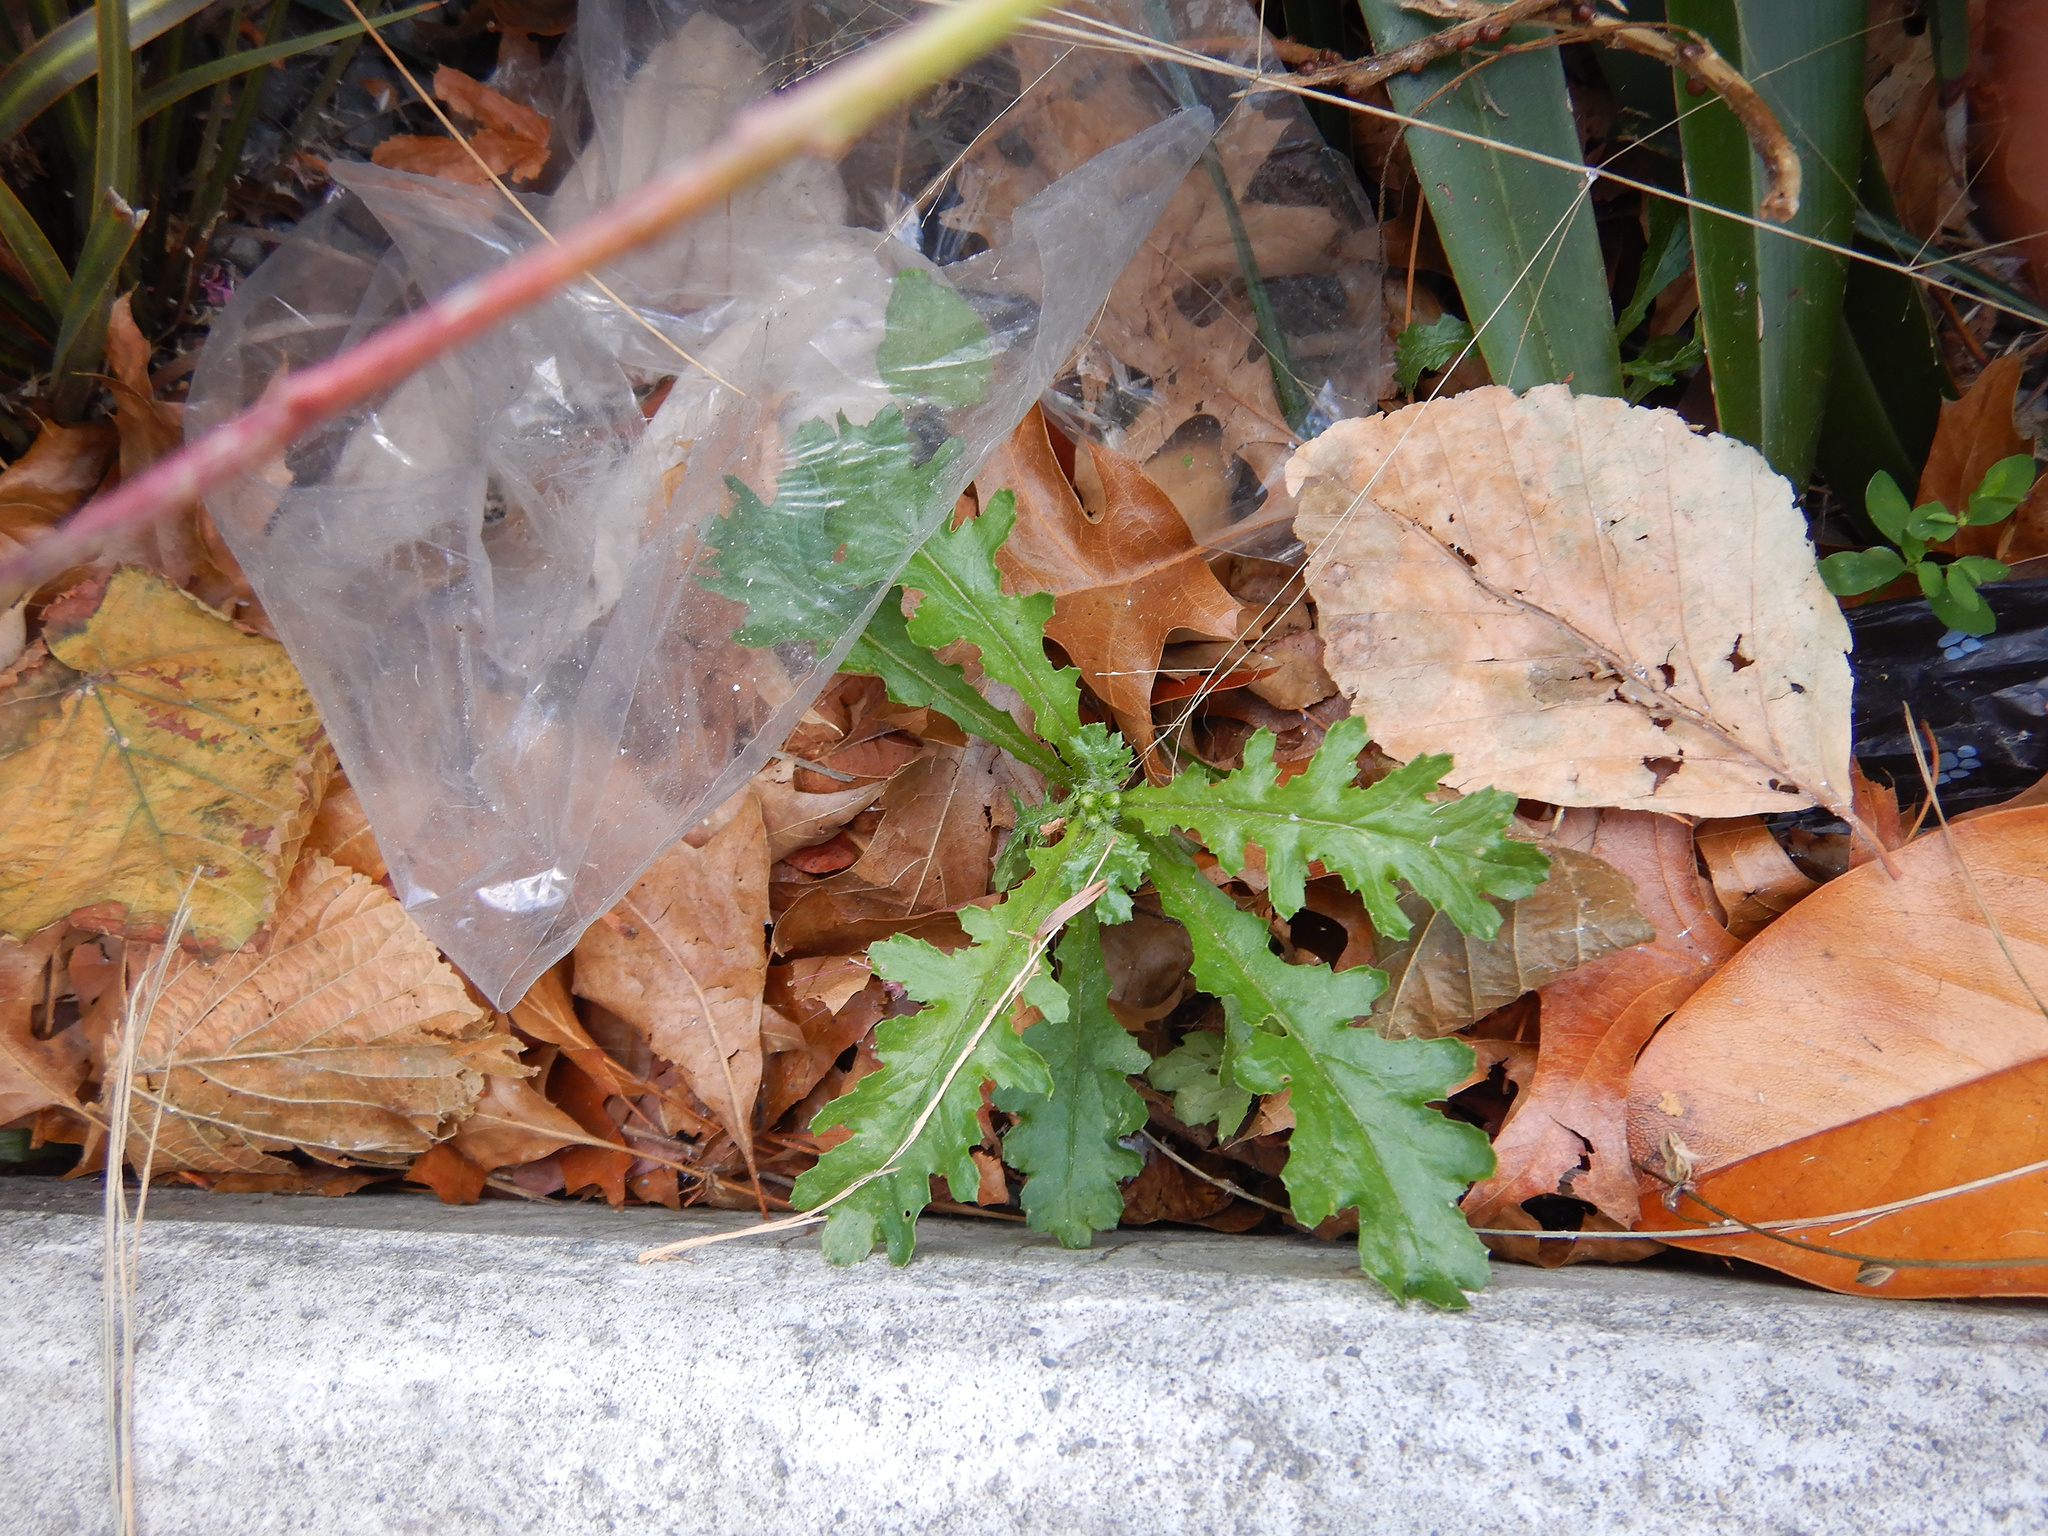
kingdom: Plantae
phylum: Tracheophyta
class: Magnoliopsida
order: Asterales
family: Asteraceae
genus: Senecio
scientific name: Senecio vulgaris
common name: Old-man-in-the-spring
